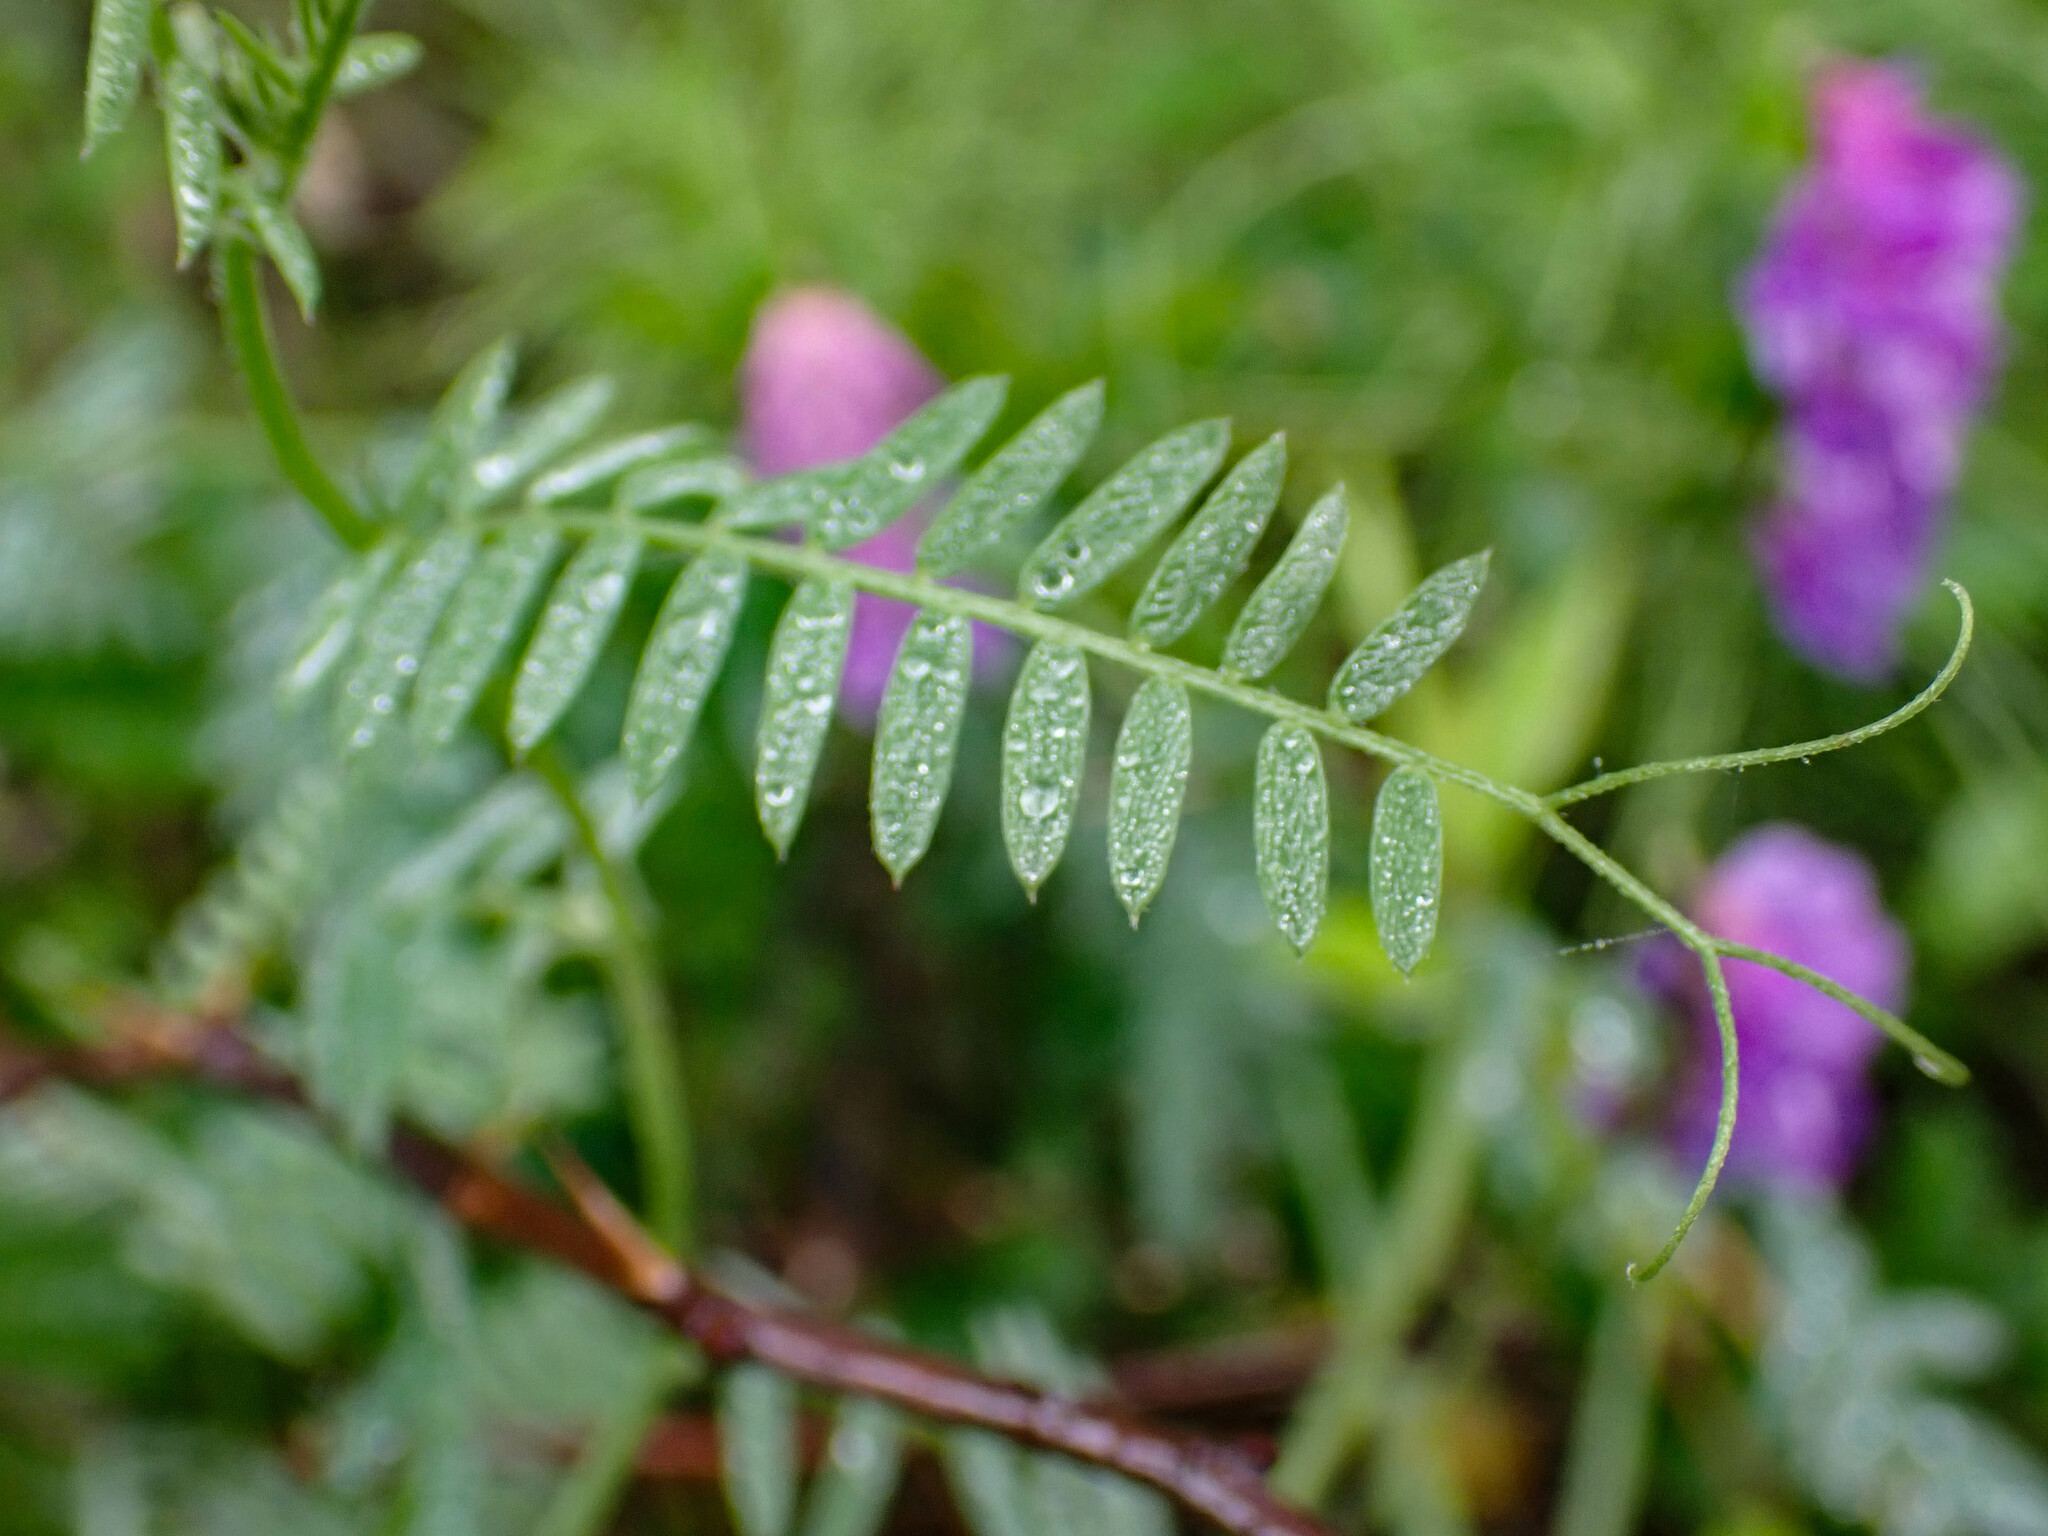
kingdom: Plantae
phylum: Tracheophyta
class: Magnoliopsida
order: Fabales
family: Fabaceae
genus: Vicia
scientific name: Vicia cracca
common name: Bird vetch
